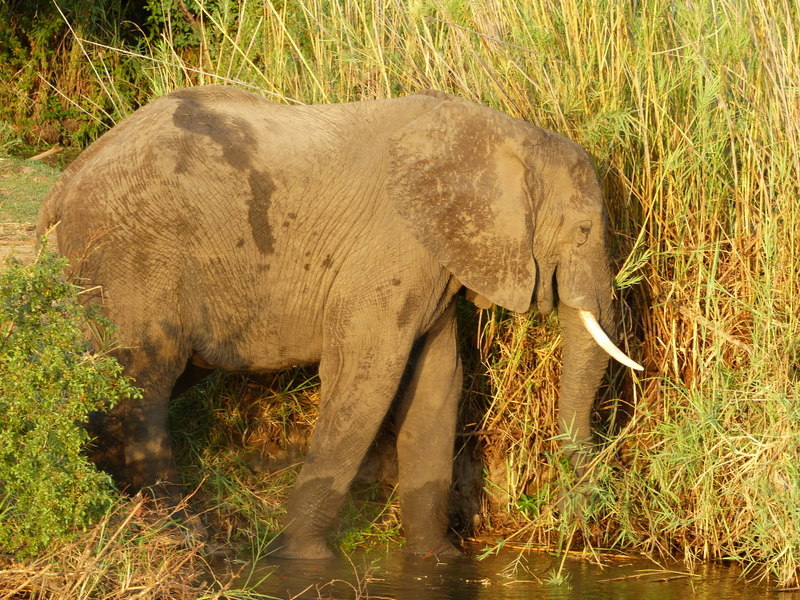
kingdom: Animalia
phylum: Chordata
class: Mammalia
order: Proboscidea
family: Elephantidae
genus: Loxodonta
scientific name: Loxodonta africana
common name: African elephant
